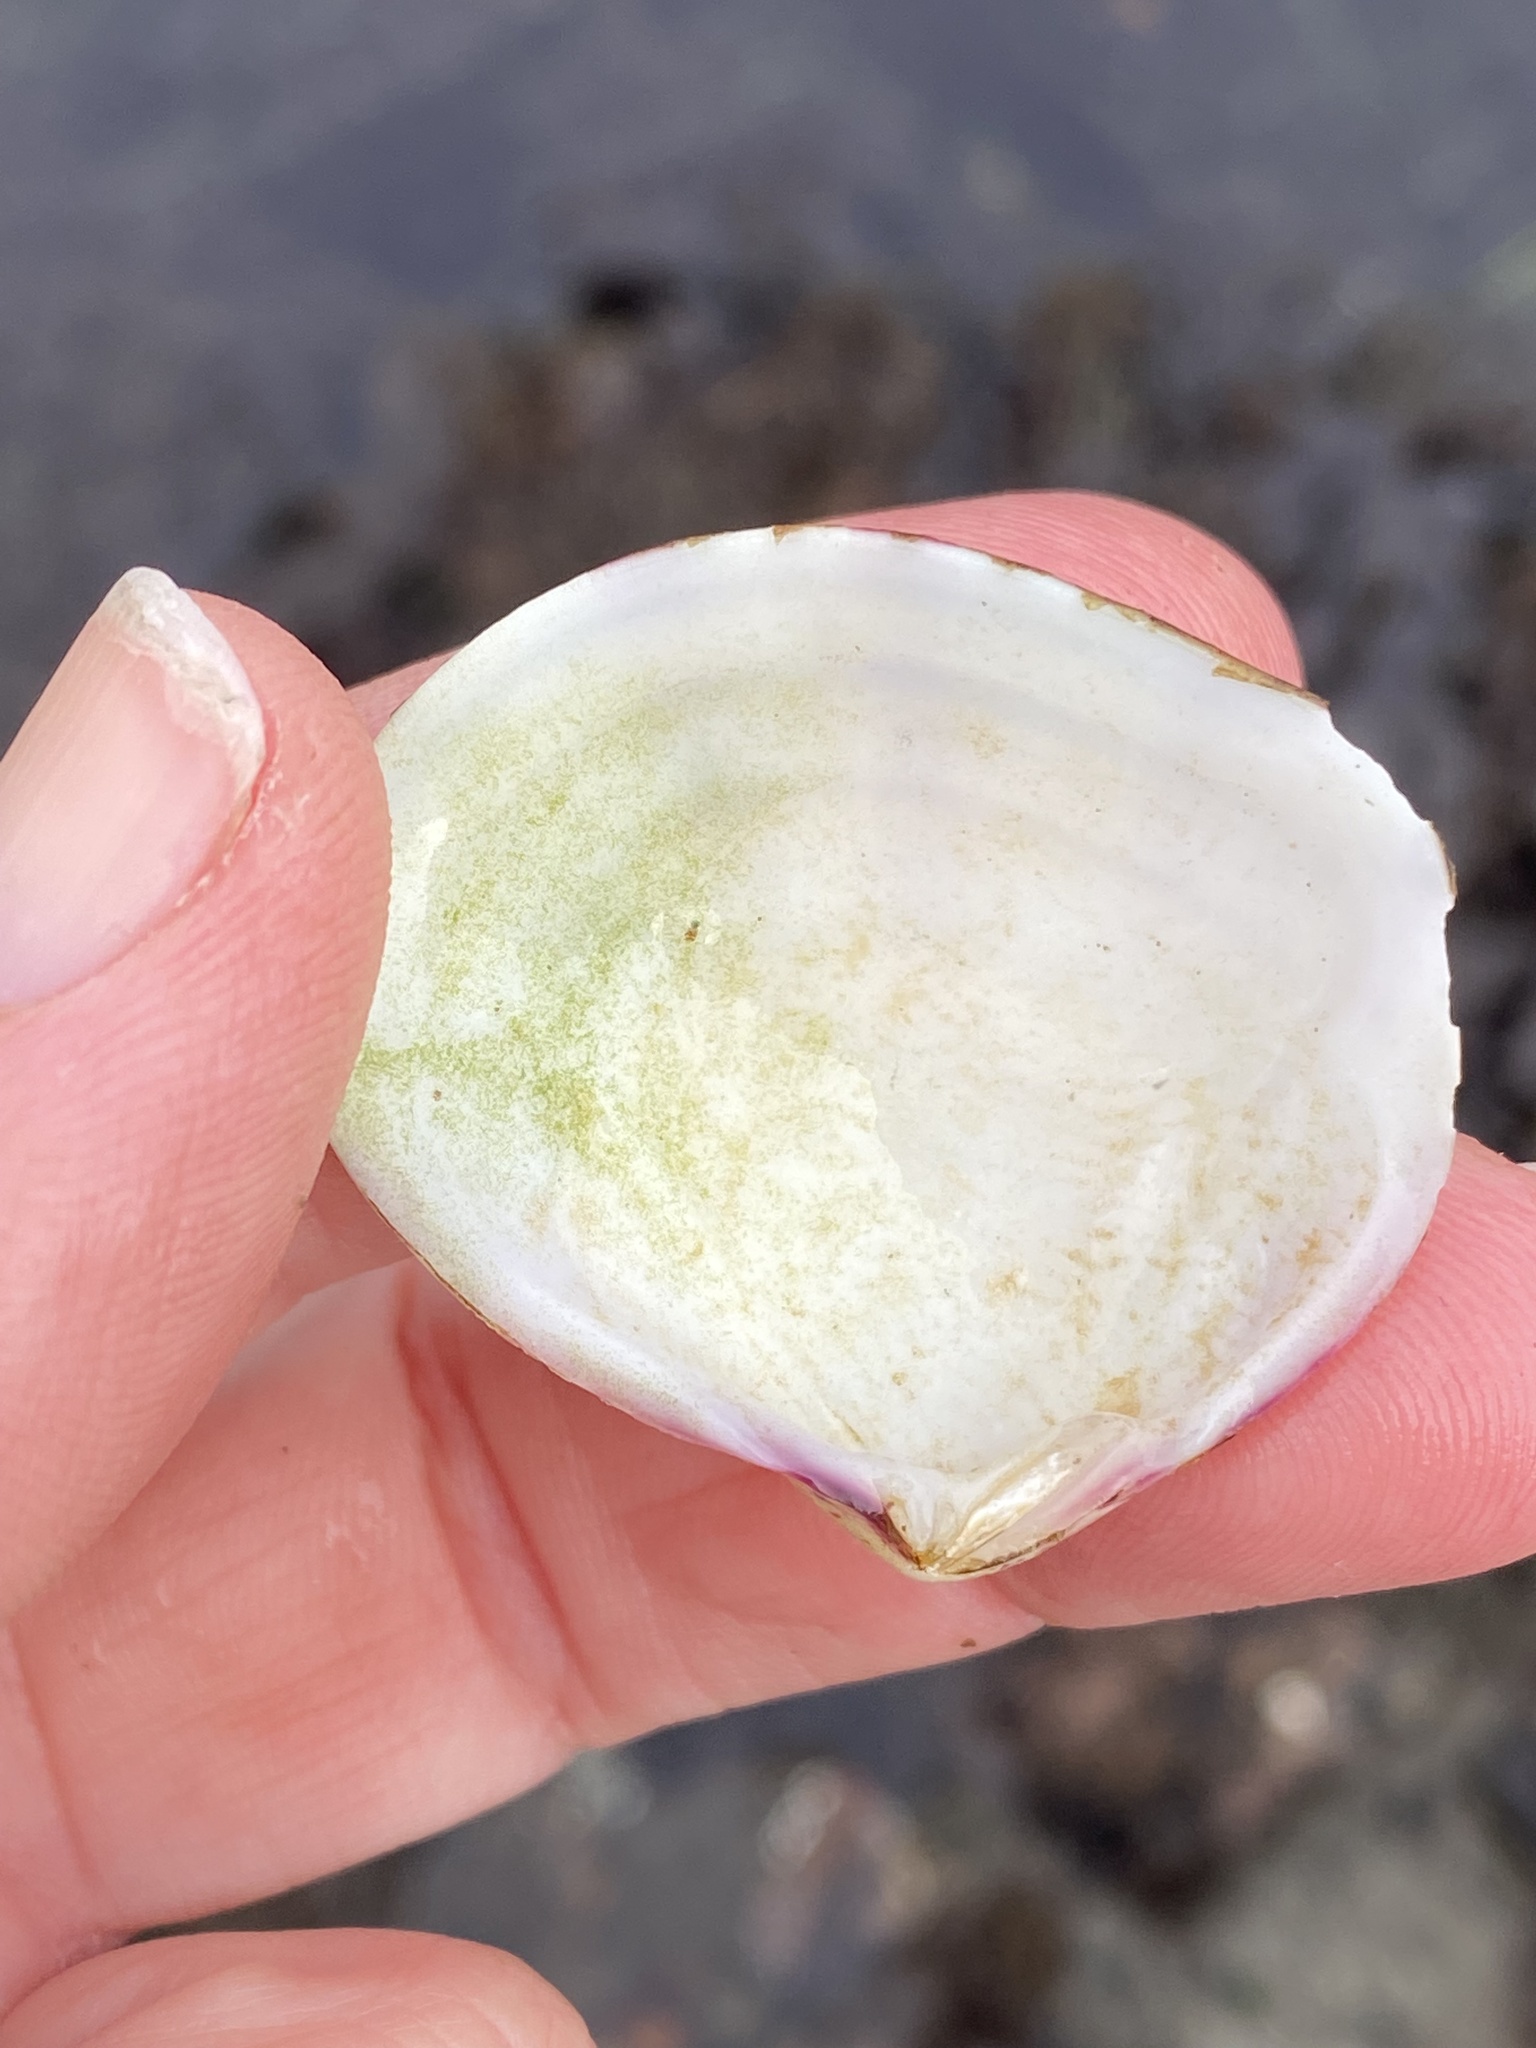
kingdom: Animalia
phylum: Mollusca
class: Bivalvia
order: Cardiida
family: Semelidae
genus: Semele
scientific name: Semele rubropicta
